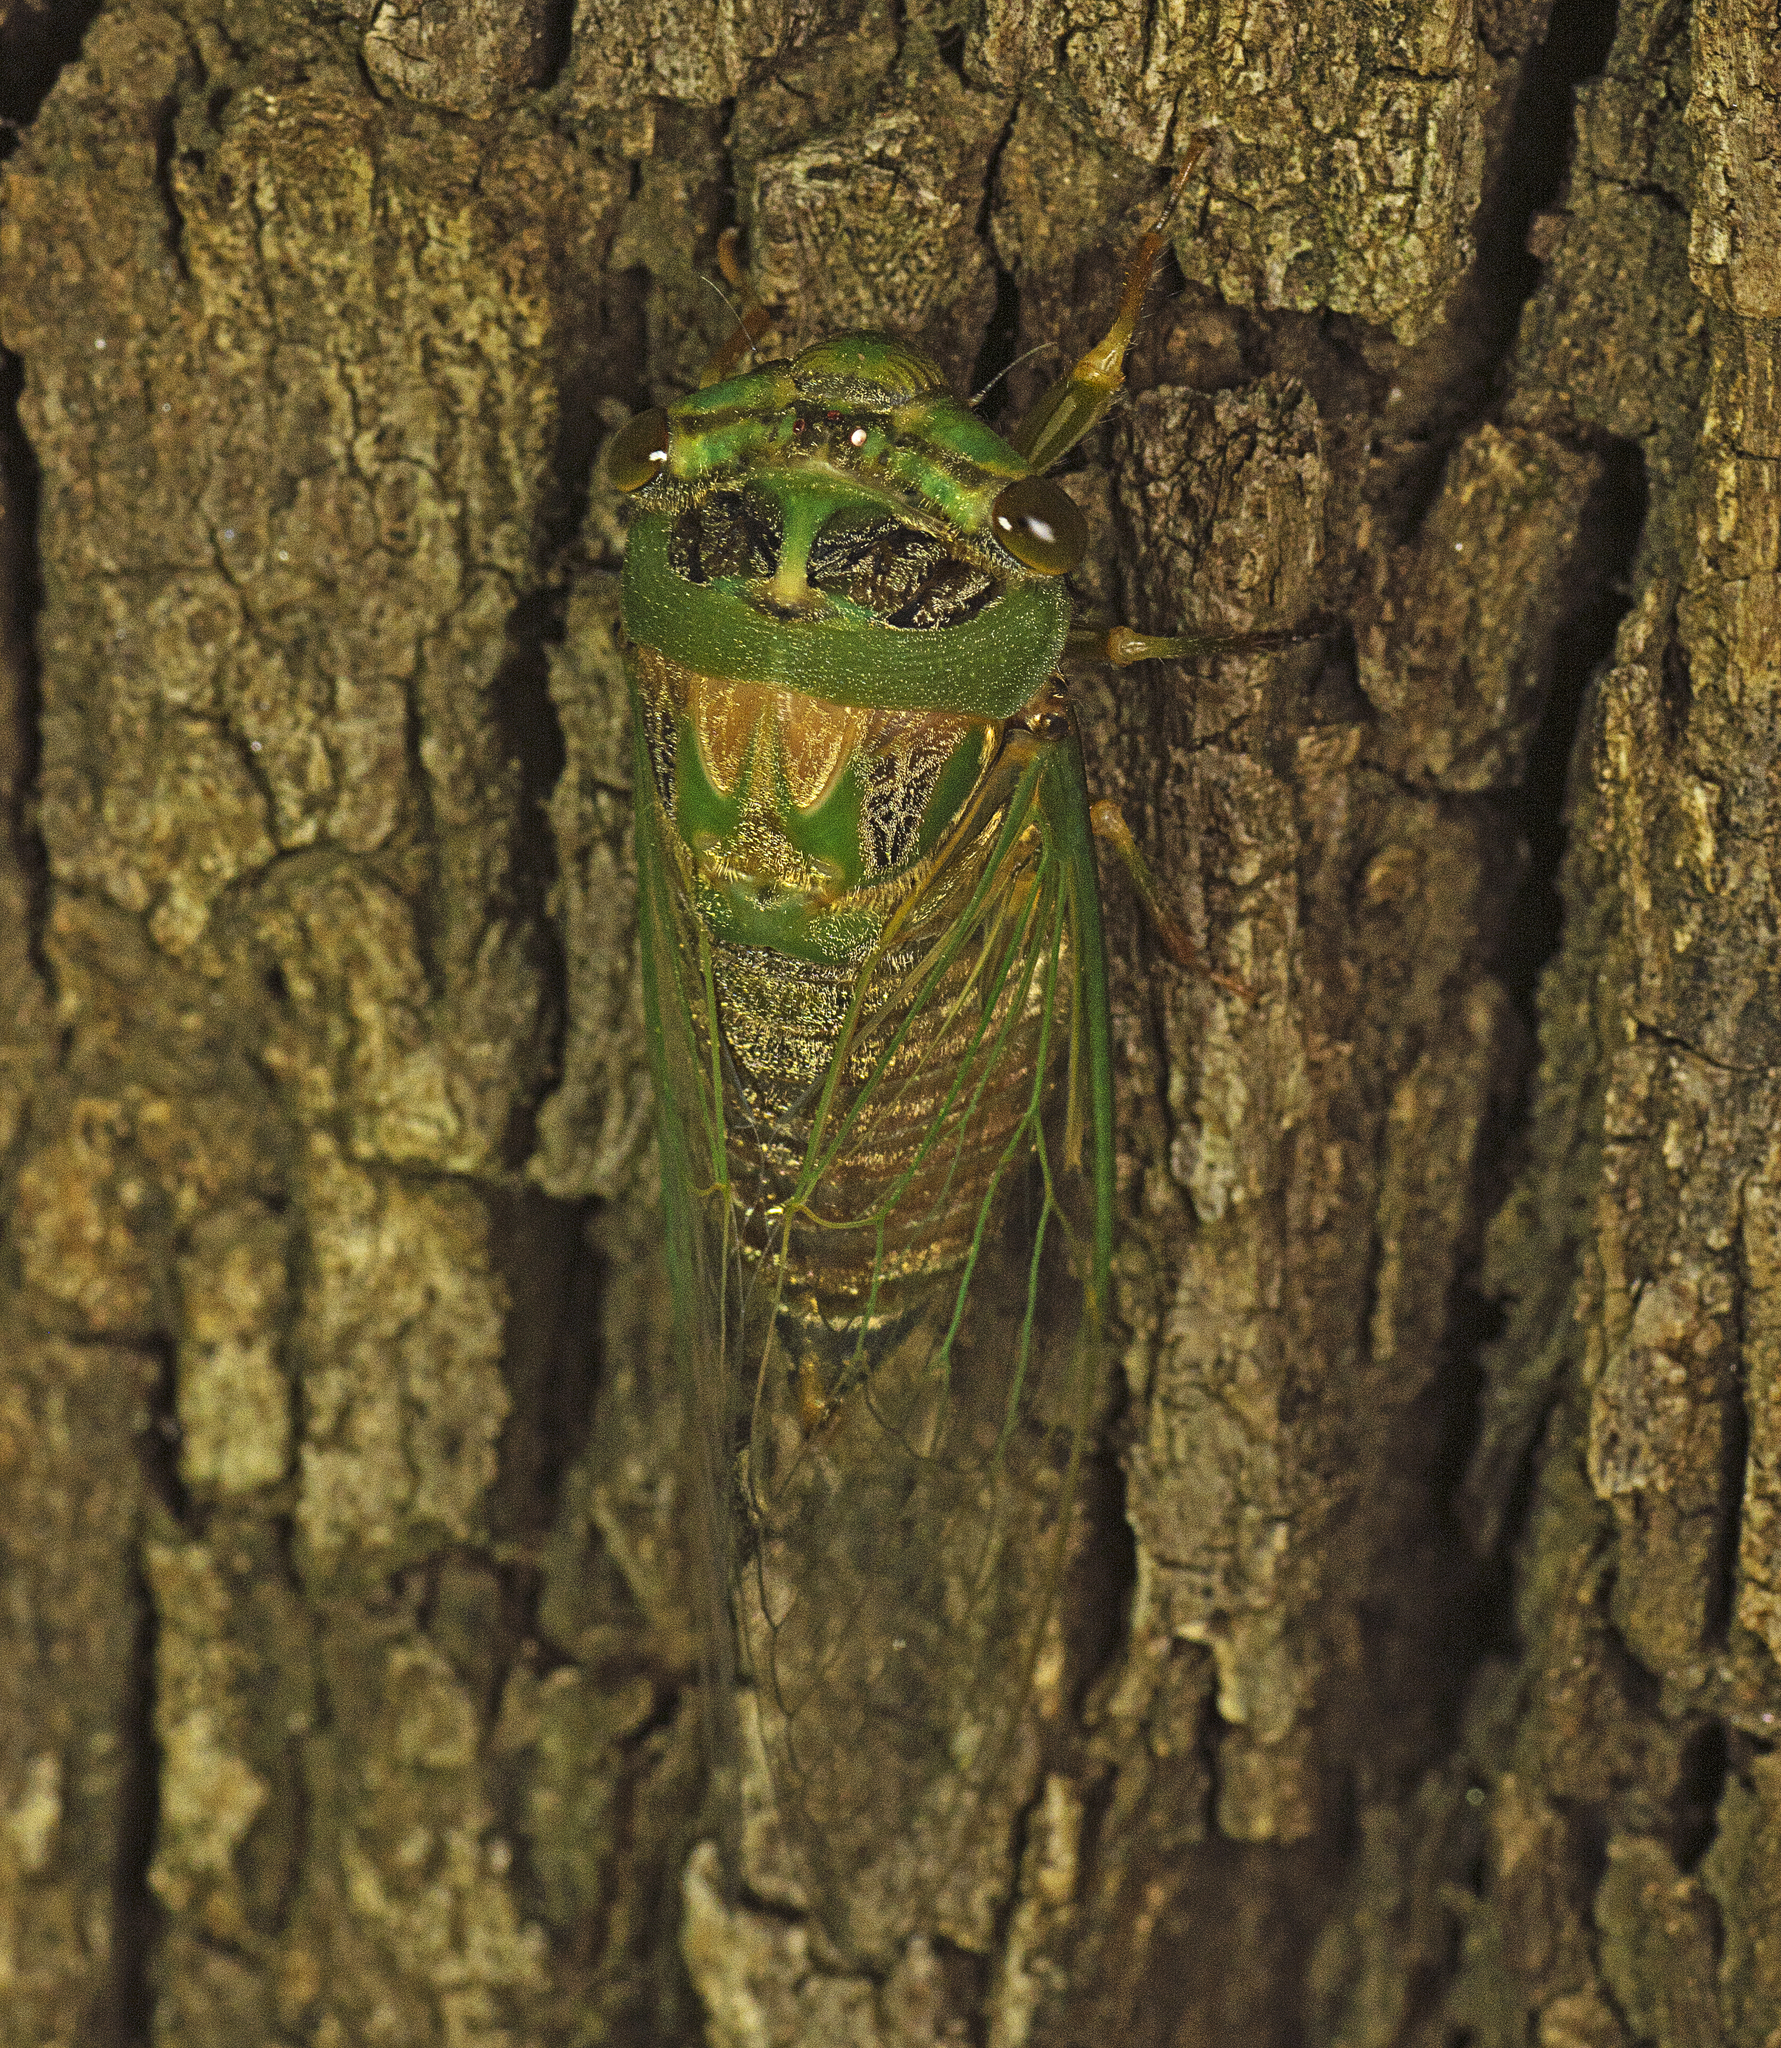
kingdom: Animalia
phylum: Arthropoda
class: Insecta
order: Hemiptera
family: Cicadidae
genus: Psaltoda
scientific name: Psaltoda
